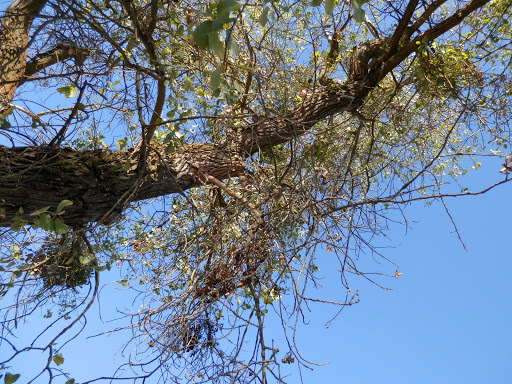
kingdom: Plantae
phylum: Tracheophyta
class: Magnoliopsida
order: Malpighiales
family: Salicaceae
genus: Populus
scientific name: Populus fremontii
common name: Fremont's cottonwood
